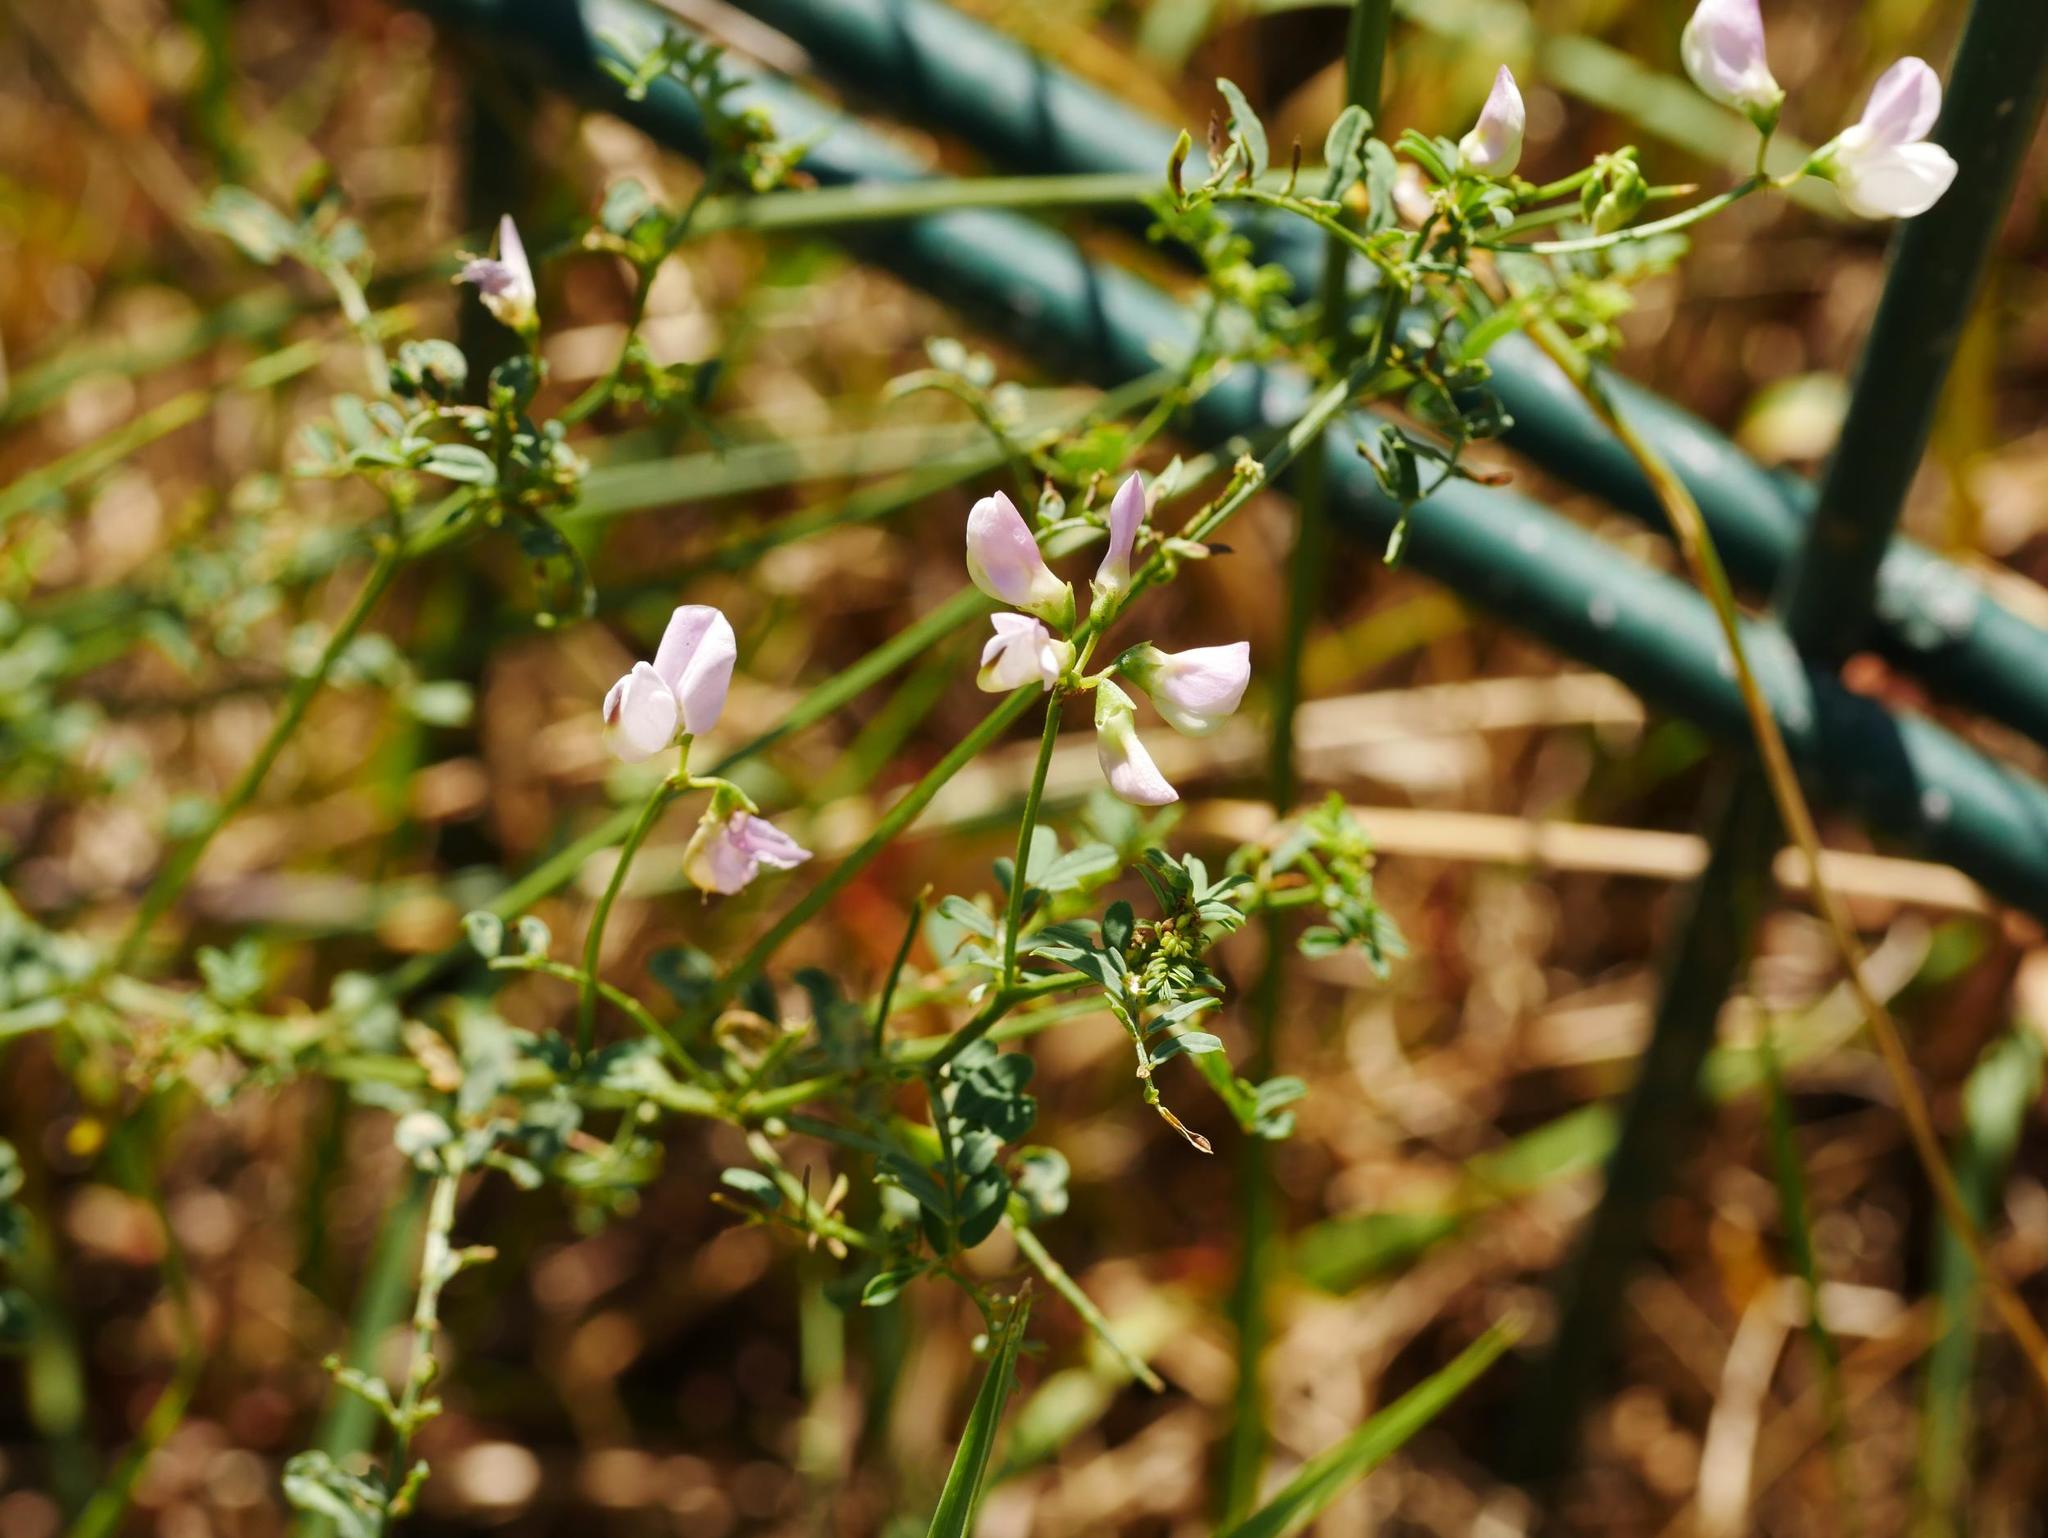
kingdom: Plantae
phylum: Tracheophyta
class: Magnoliopsida
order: Fabales
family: Fabaceae
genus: Coronilla
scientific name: Coronilla varia
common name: Crownvetch
